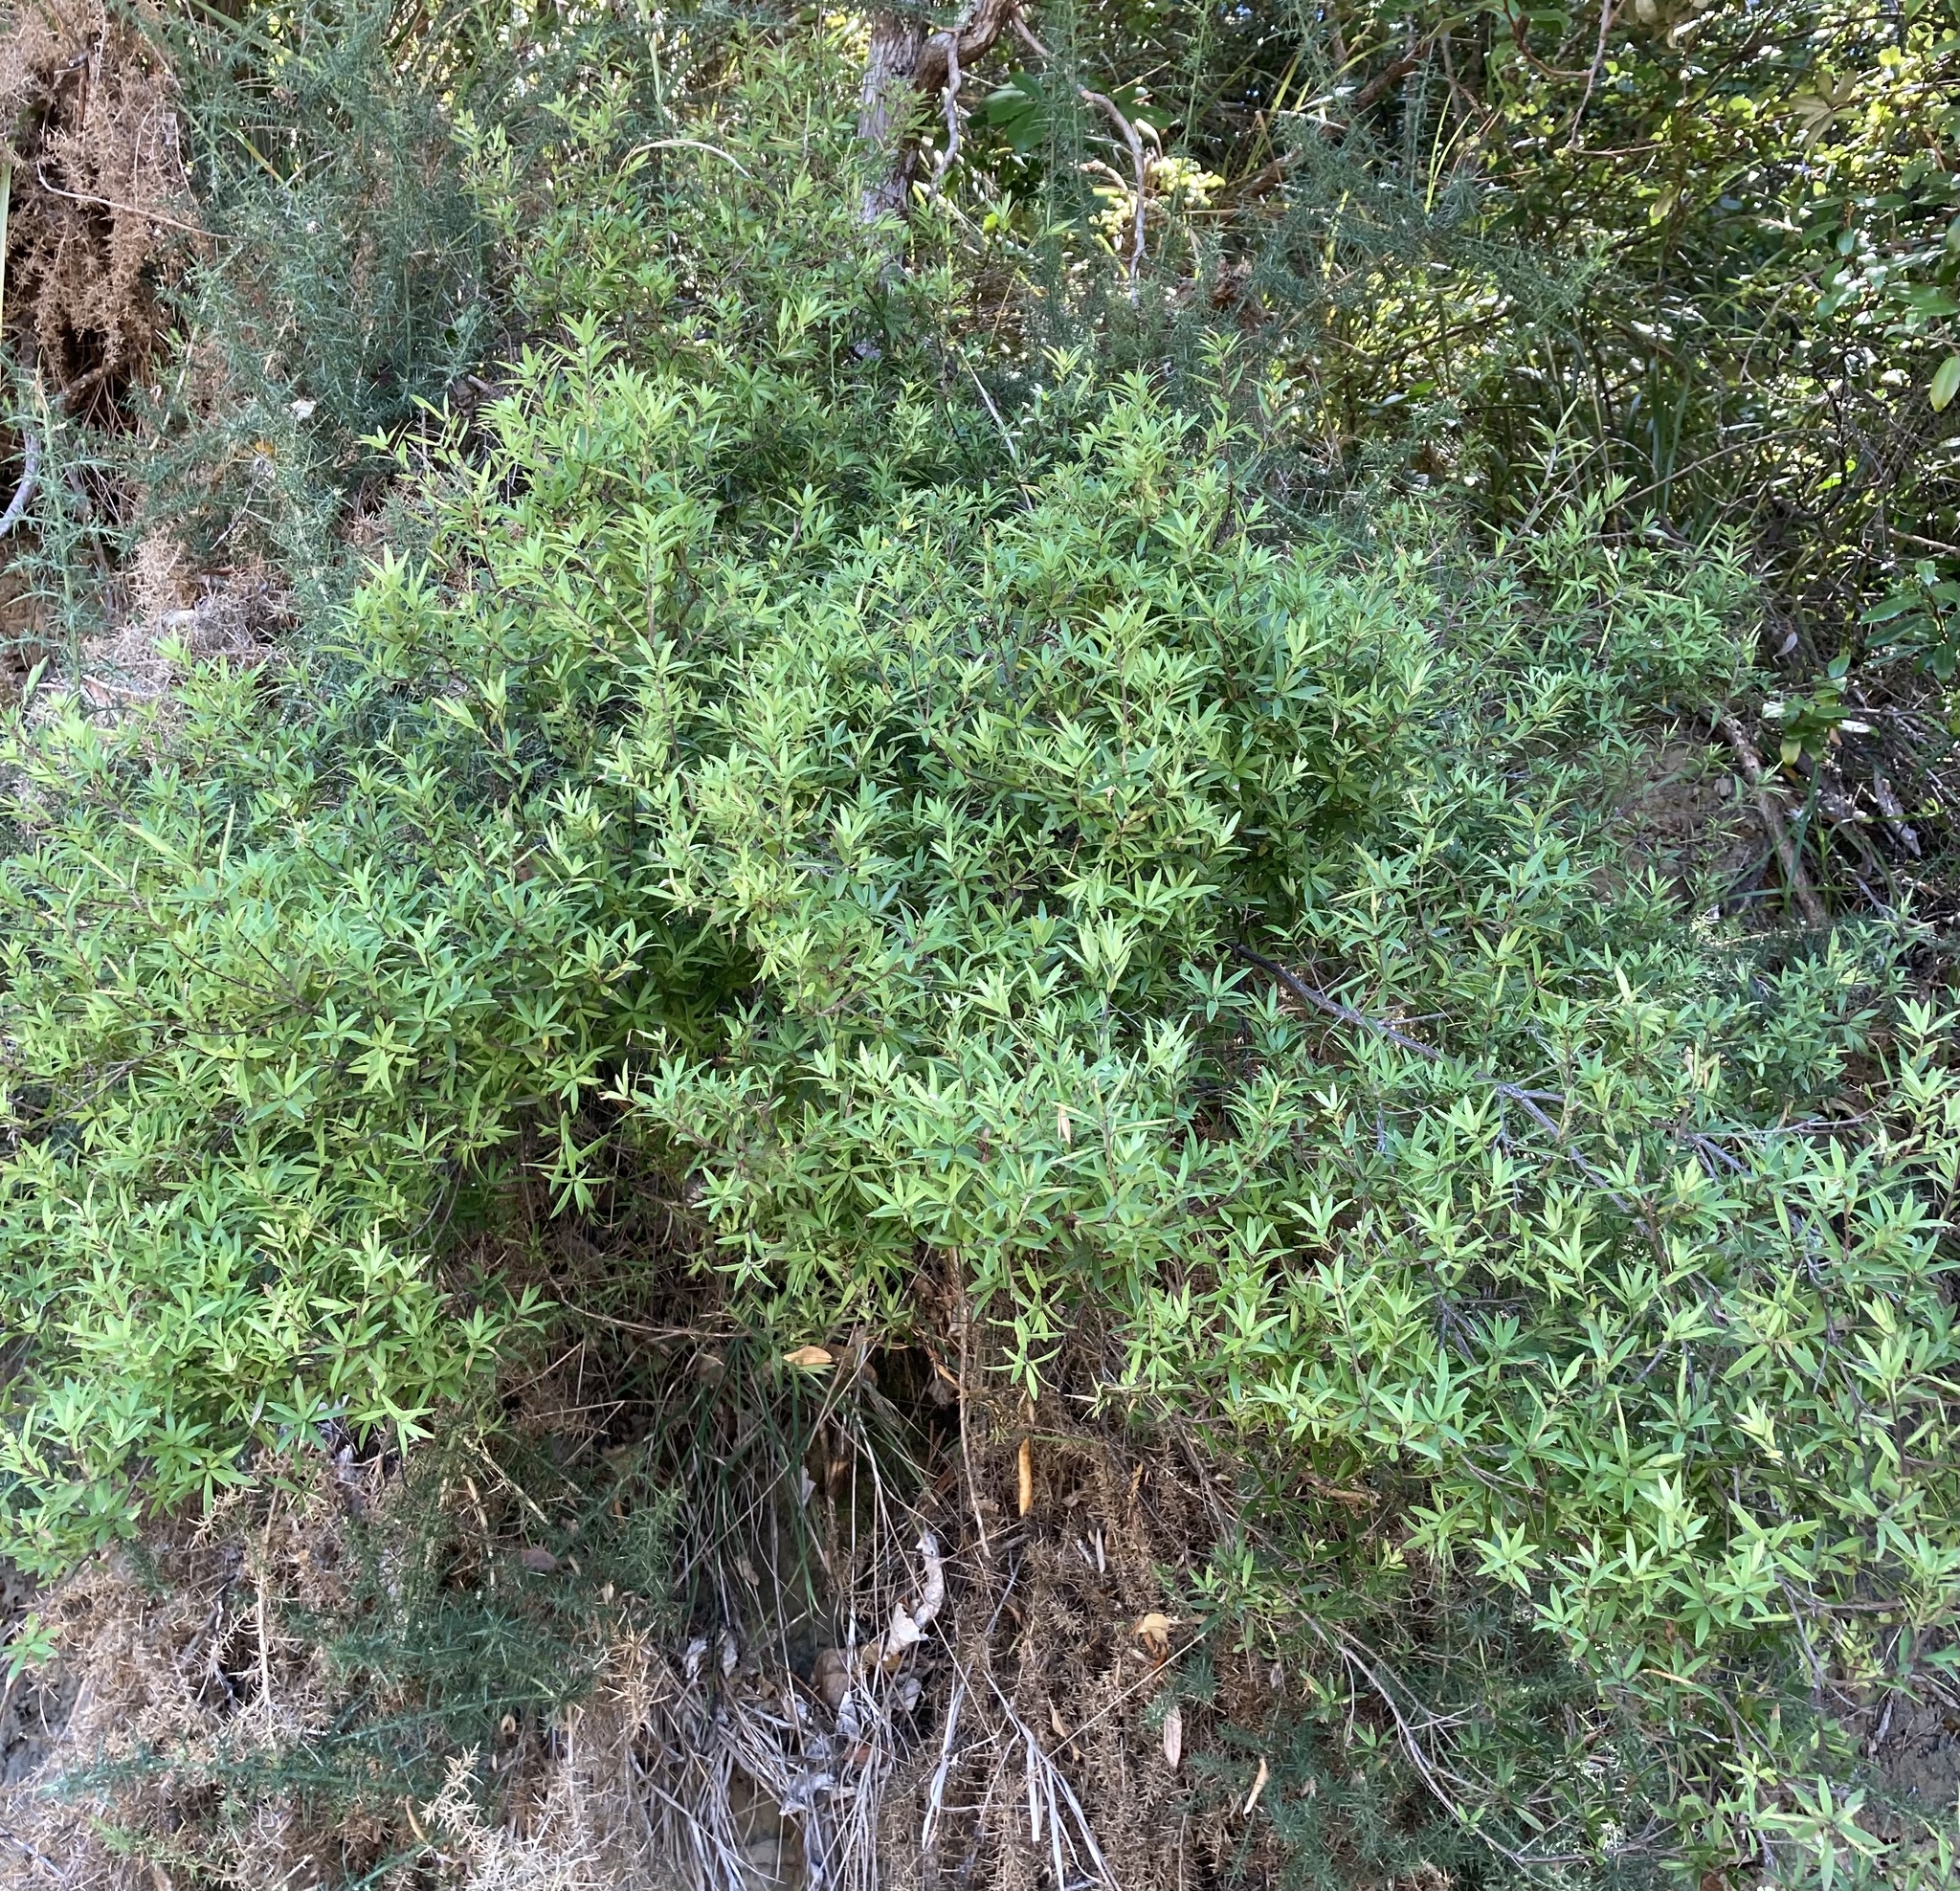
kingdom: Plantae
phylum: Tracheophyta
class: Magnoliopsida
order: Ericales
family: Ericaceae
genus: Leucopogon
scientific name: Leucopogon fasciculatus
